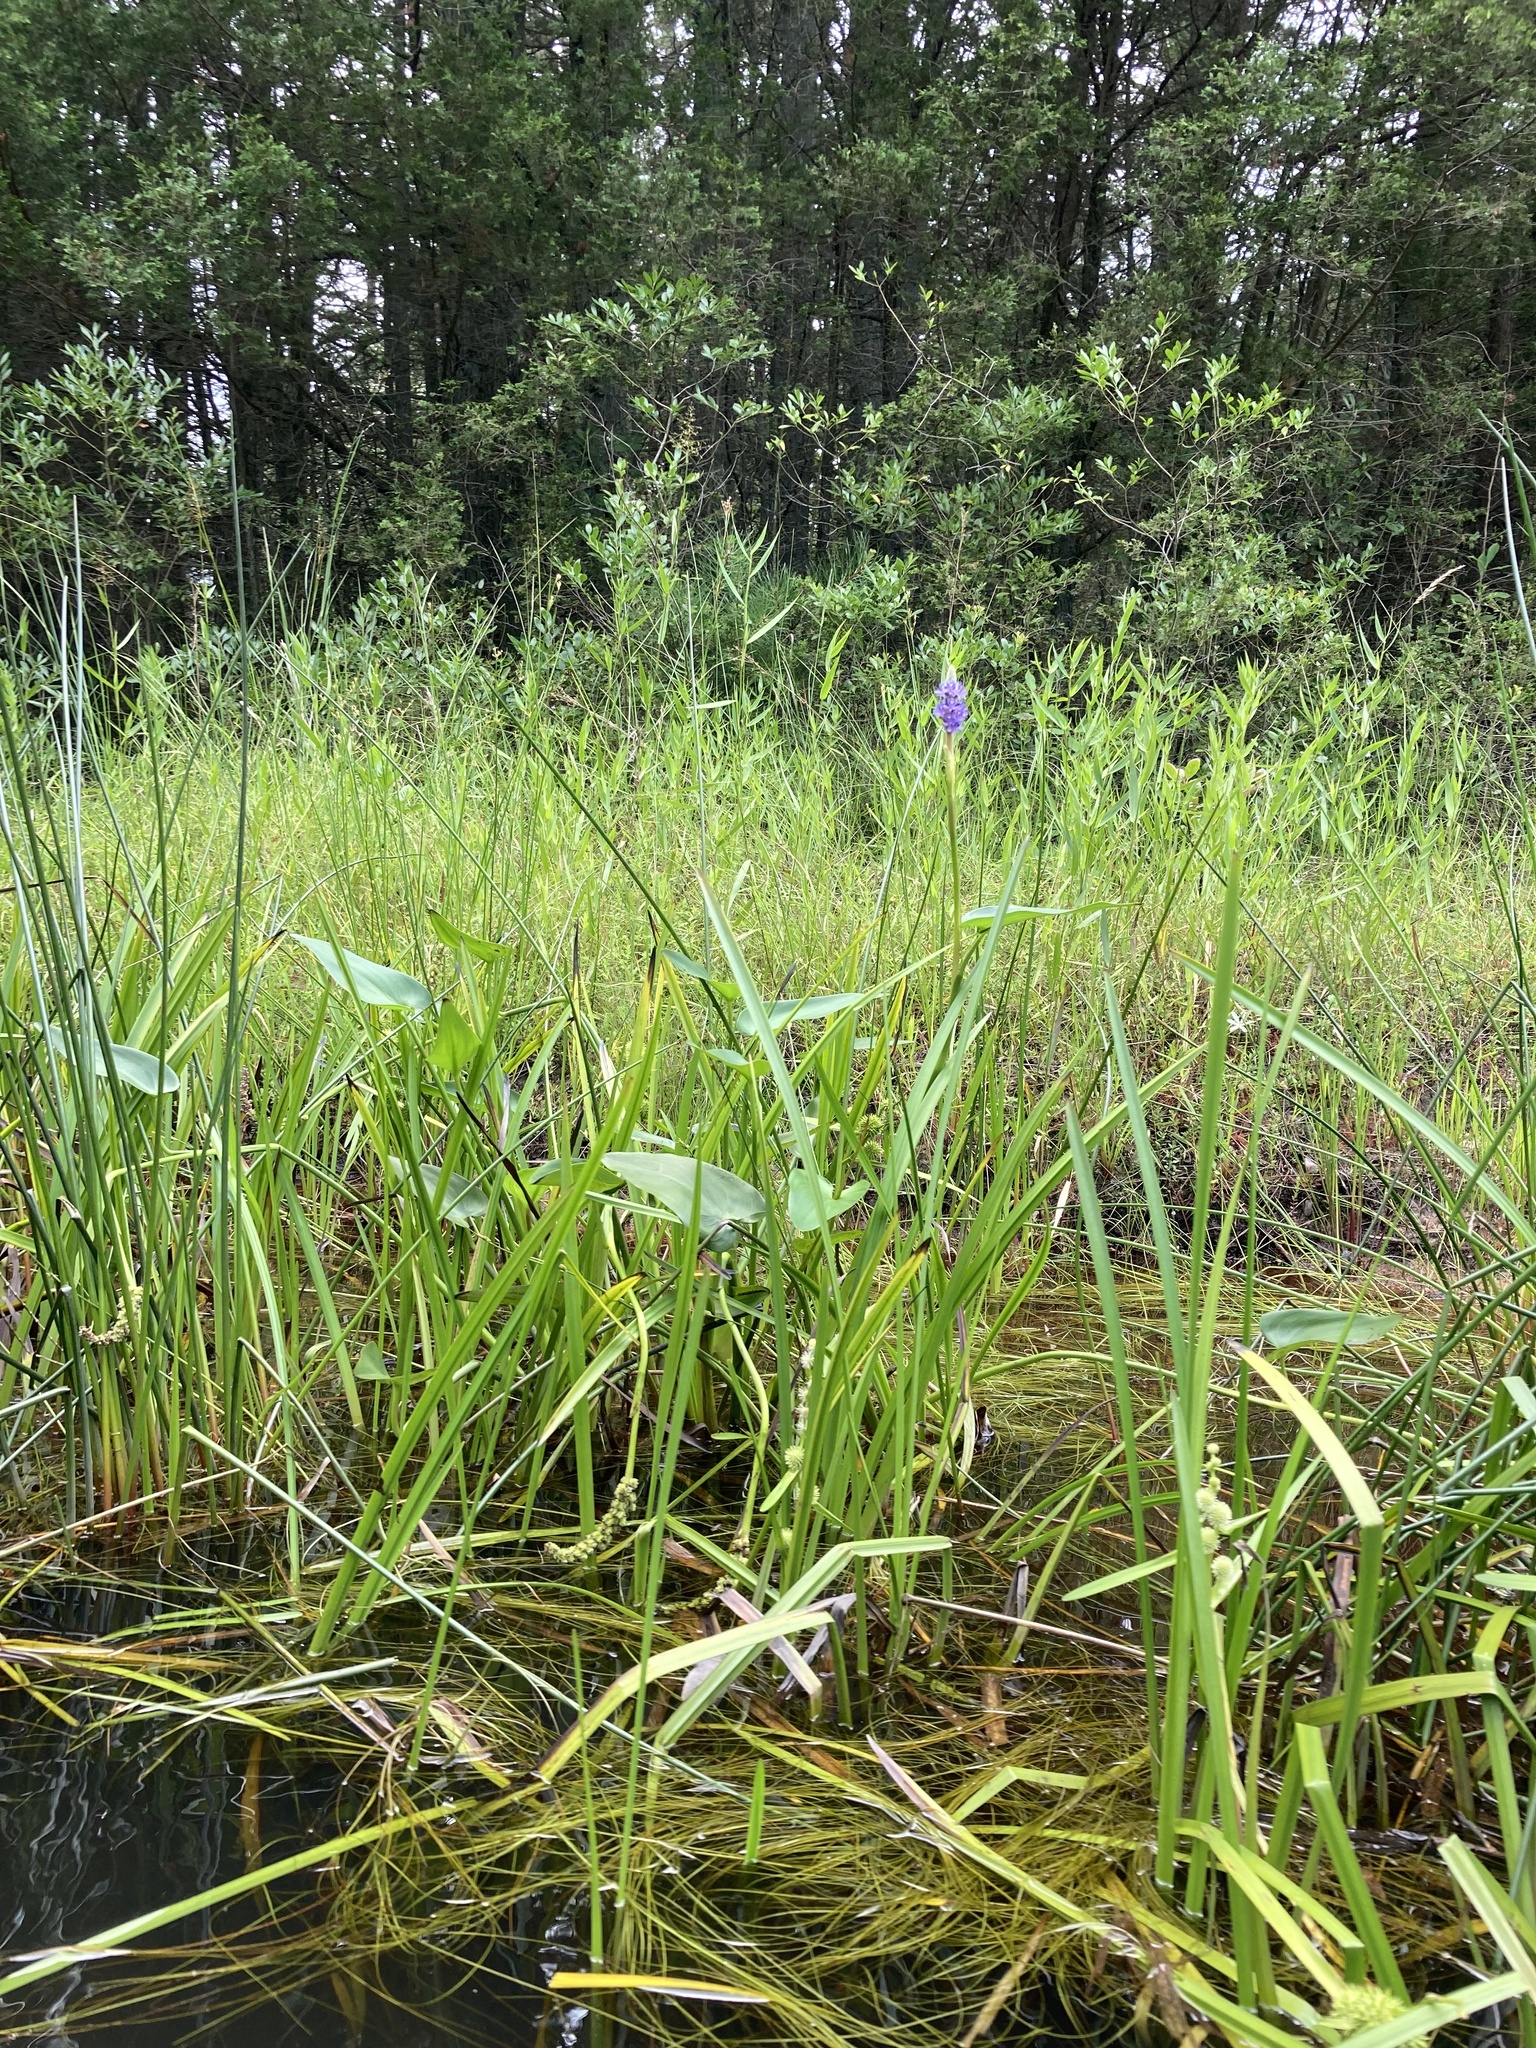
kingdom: Plantae
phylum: Tracheophyta
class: Liliopsida
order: Commelinales
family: Pontederiaceae
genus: Pontederia
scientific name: Pontederia cordata
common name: Pickerelweed
